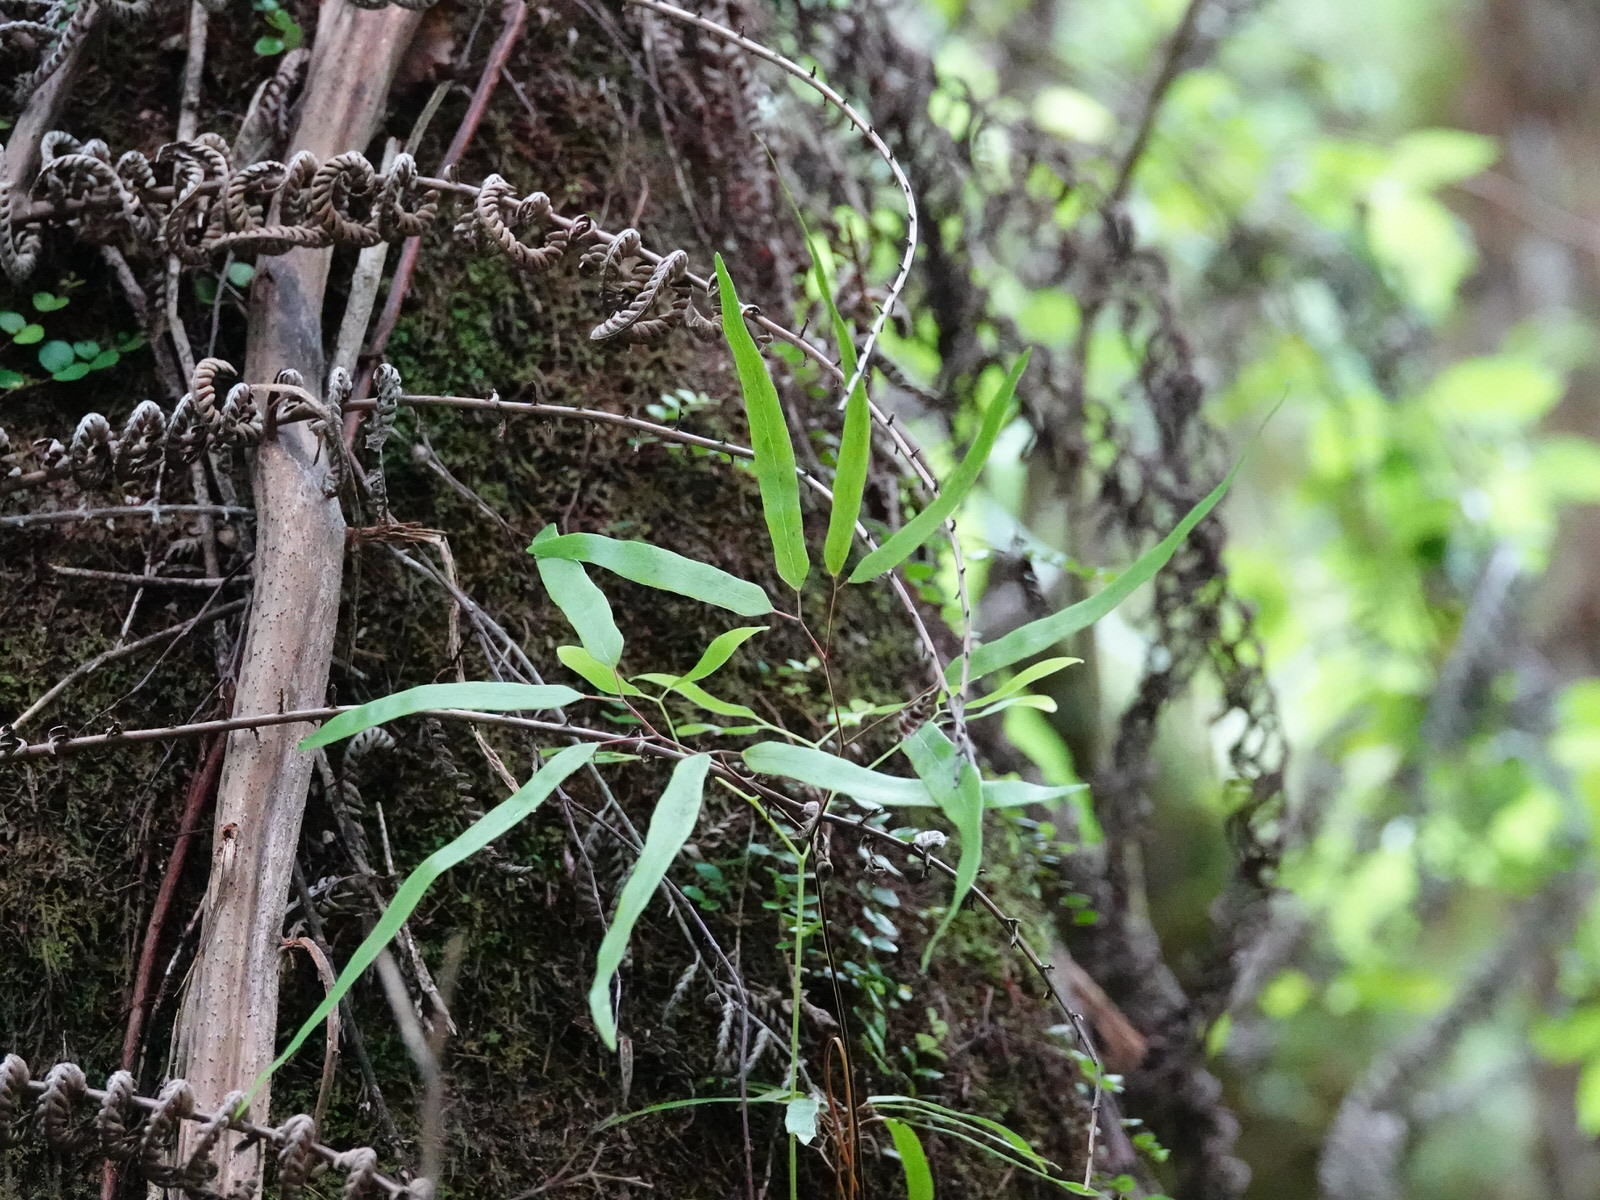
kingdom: Plantae
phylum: Tracheophyta
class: Polypodiopsida
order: Schizaeales
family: Lygodiaceae
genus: Lygodium
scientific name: Lygodium articulatum
